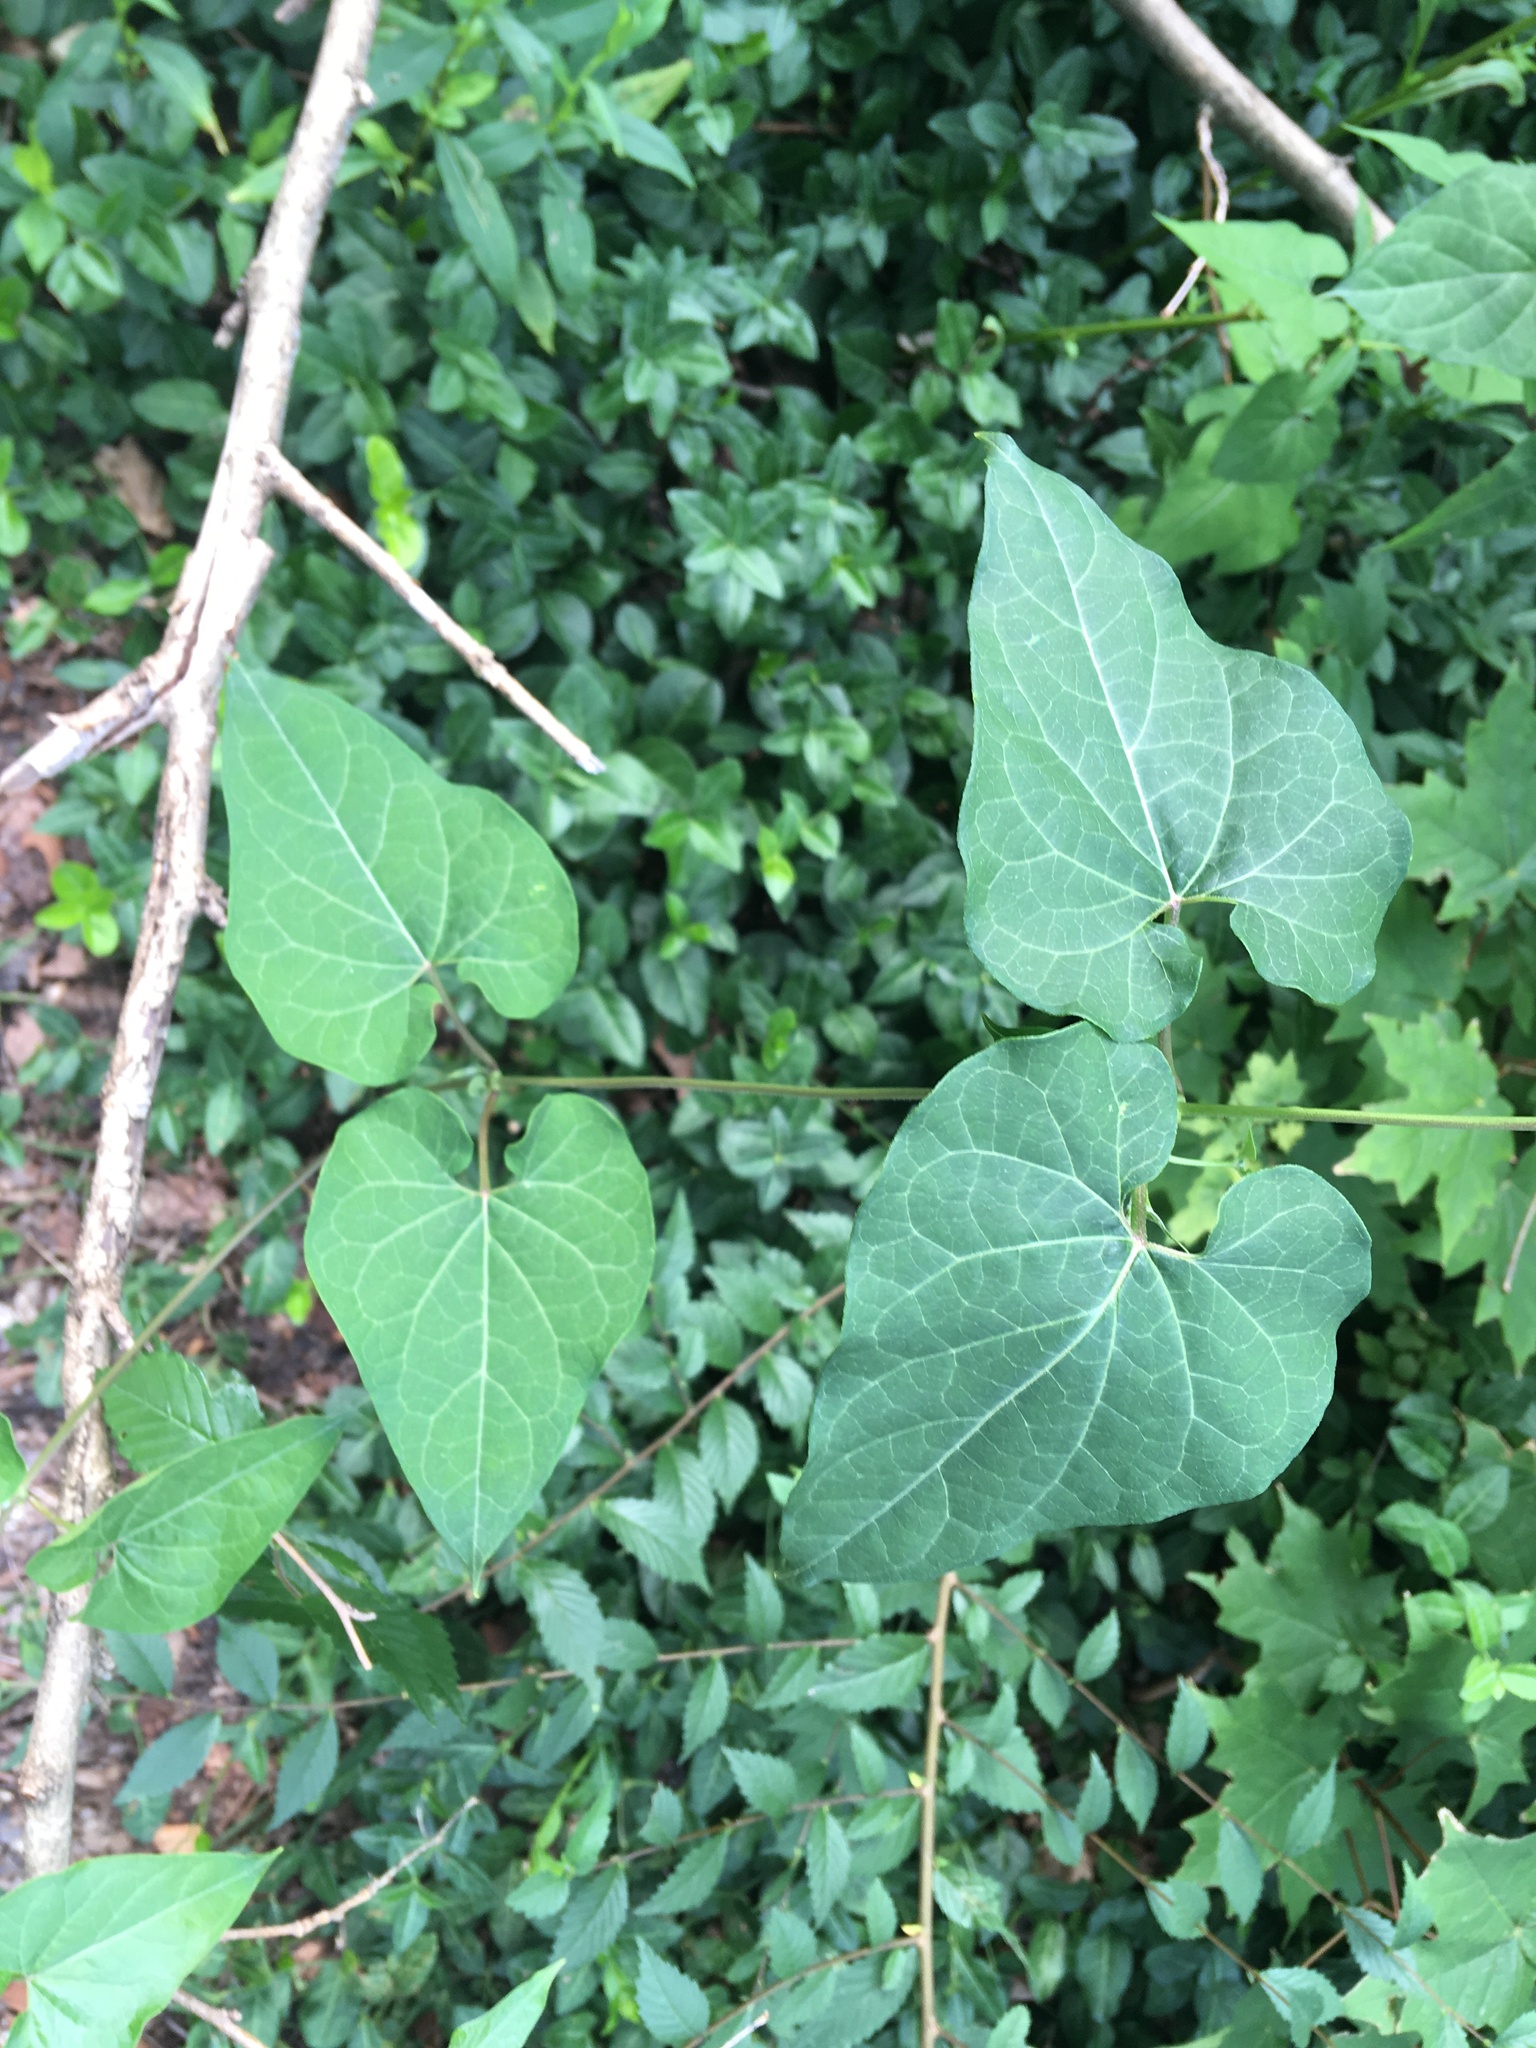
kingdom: Plantae
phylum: Tracheophyta
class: Magnoliopsida
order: Gentianales
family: Apocynaceae
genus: Cynanchum
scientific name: Cynanchum laeve
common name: Sandvine
